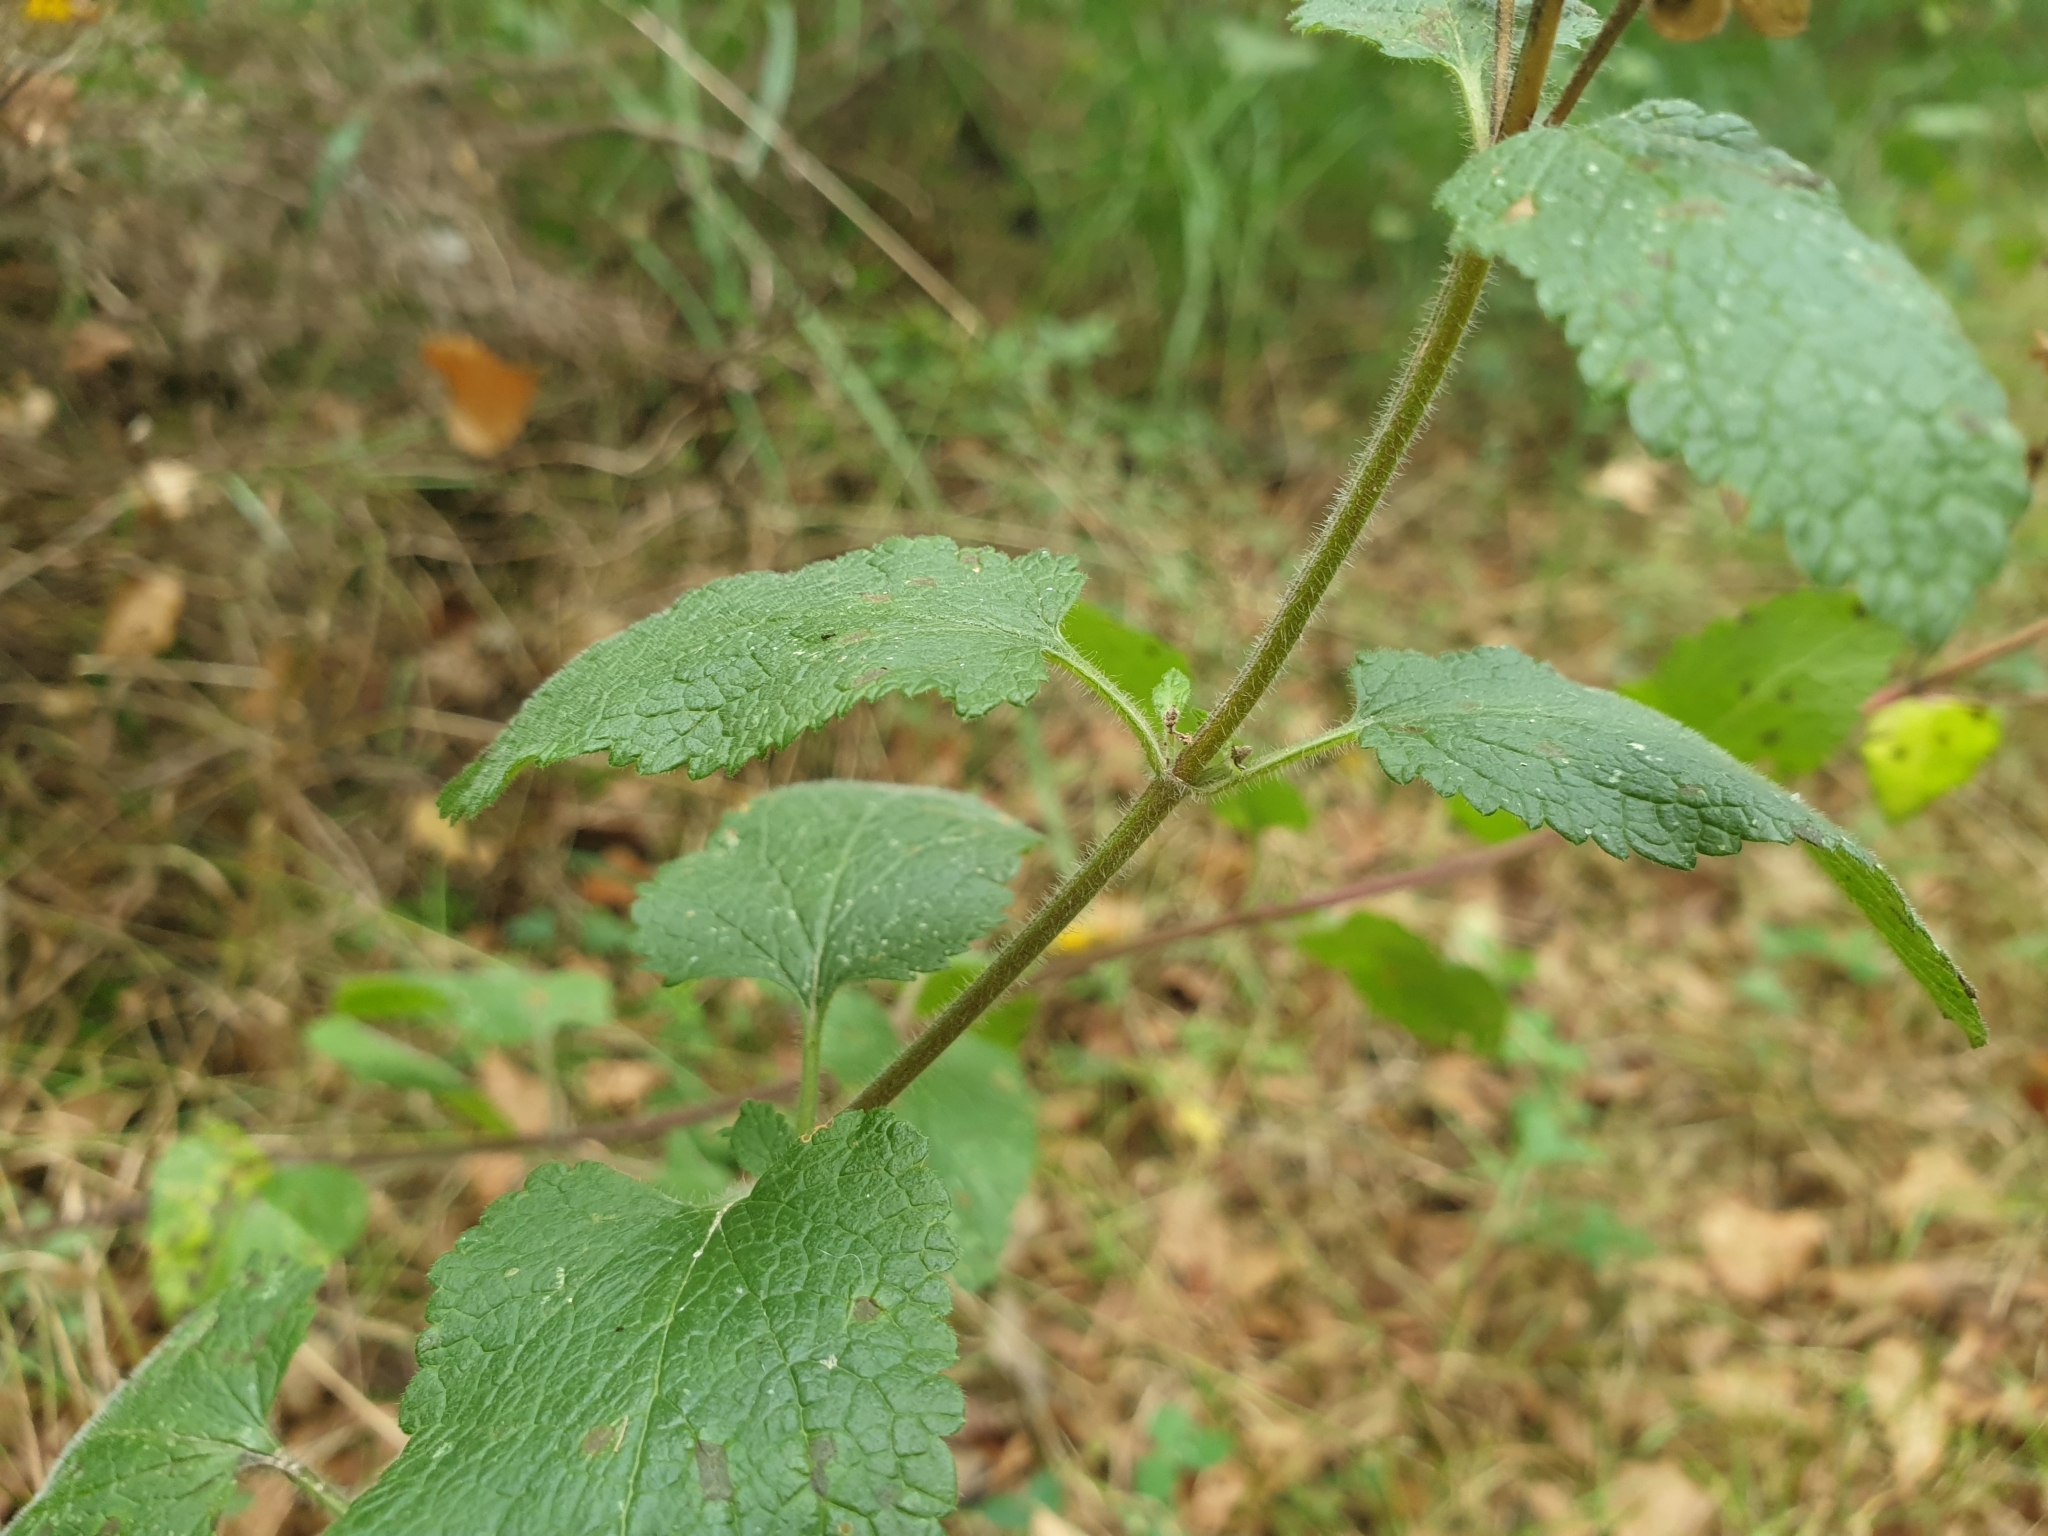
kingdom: Plantae
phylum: Tracheophyta
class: Magnoliopsida
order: Lamiales
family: Lamiaceae
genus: Teucrium
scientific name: Teucrium scorodonia
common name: Woodland germander
